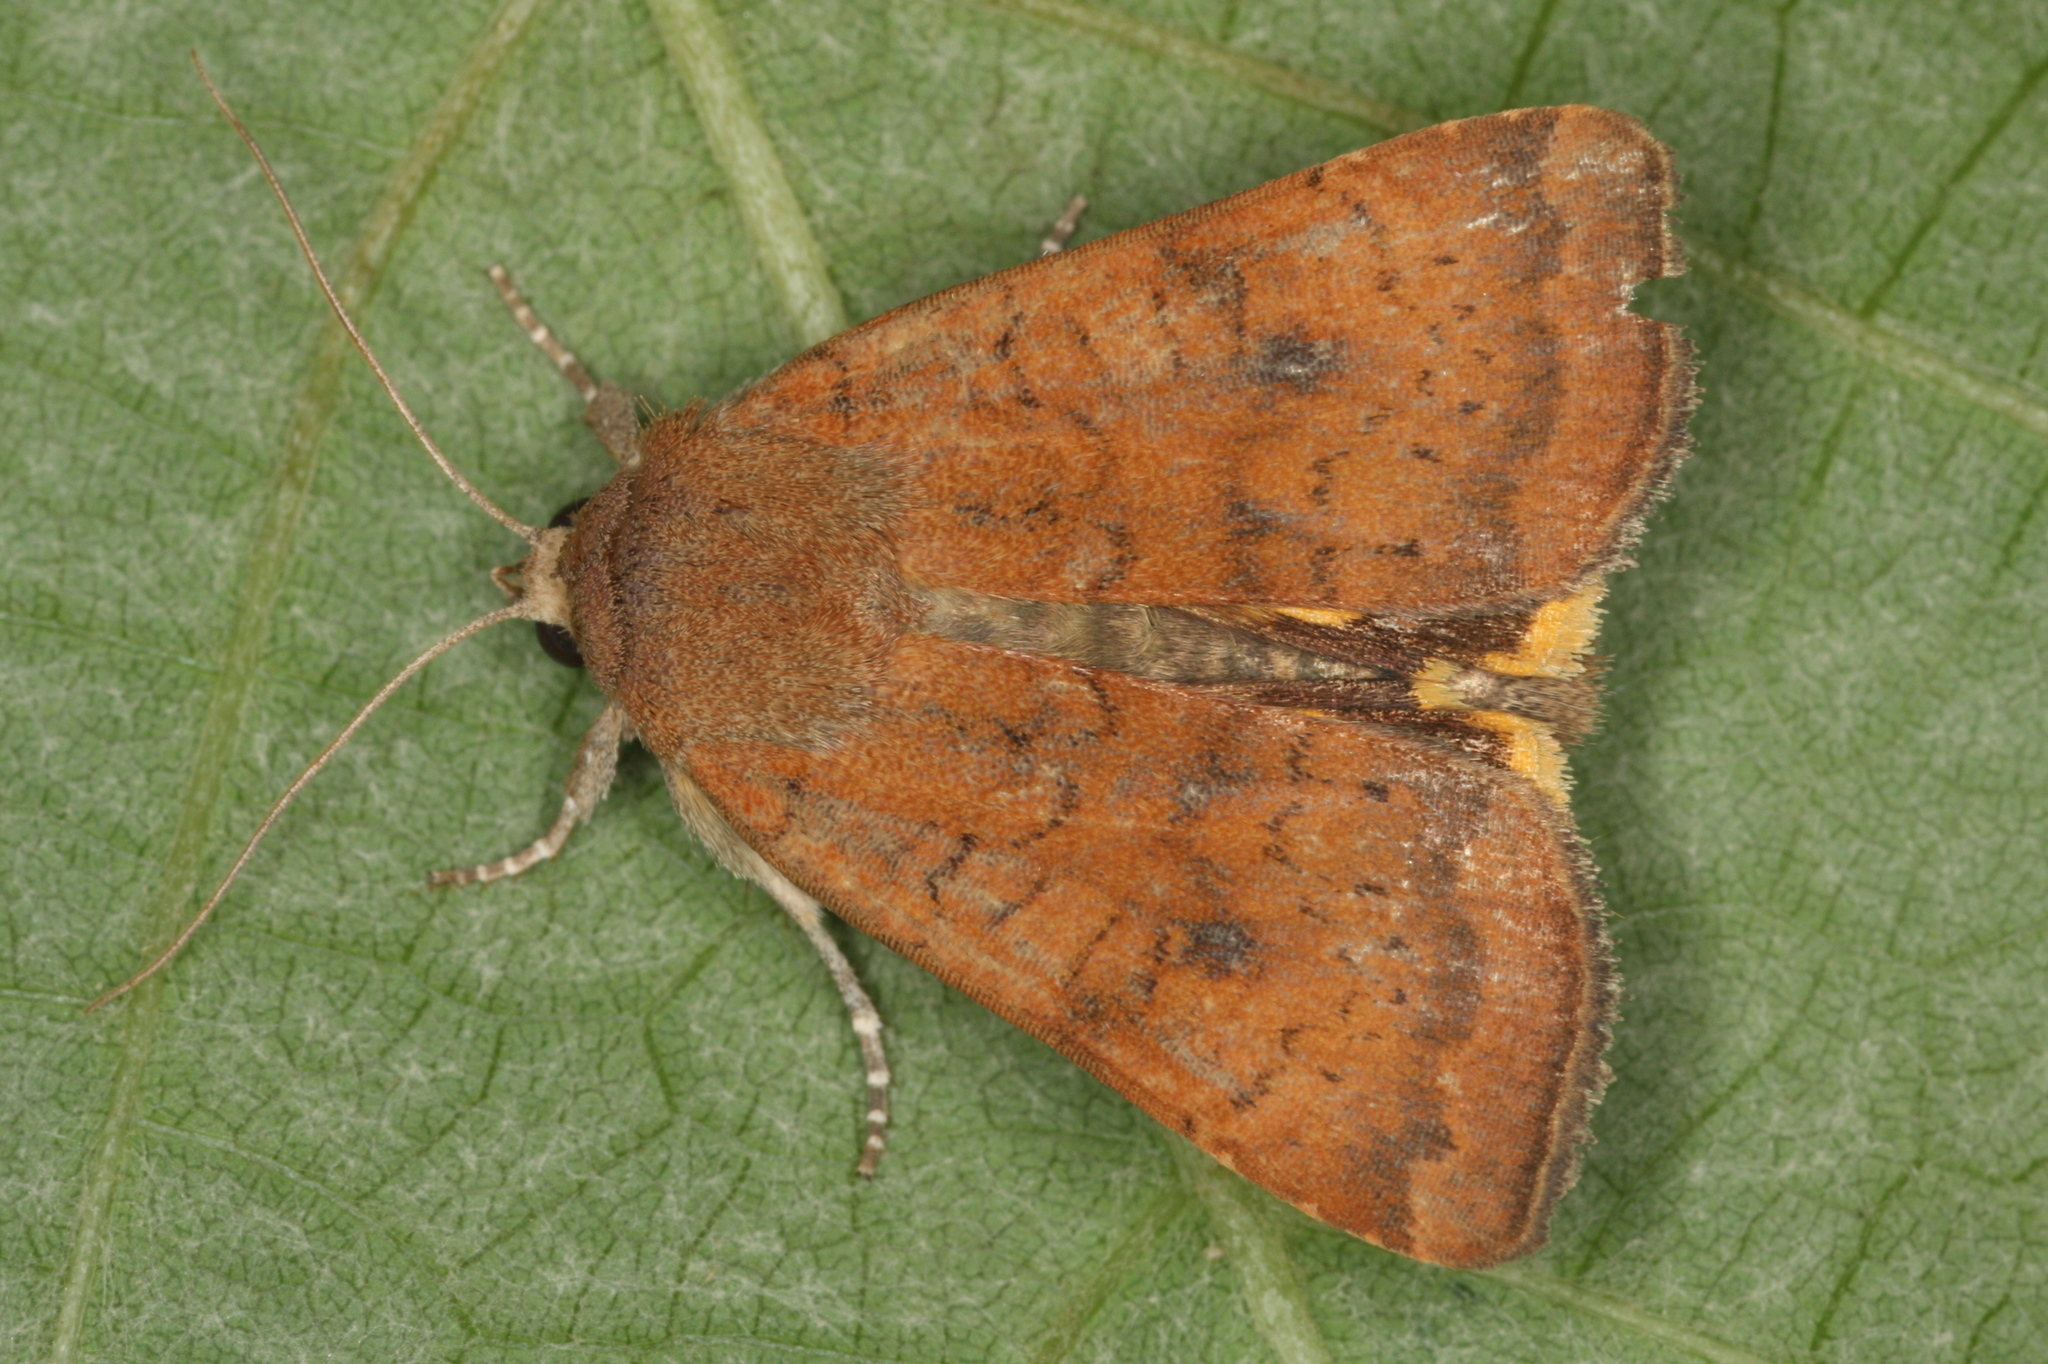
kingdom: Animalia
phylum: Arthropoda
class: Insecta
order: Lepidoptera
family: Noctuidae
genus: Noctua
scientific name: Noctua interjecta
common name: Least yellow underwing
